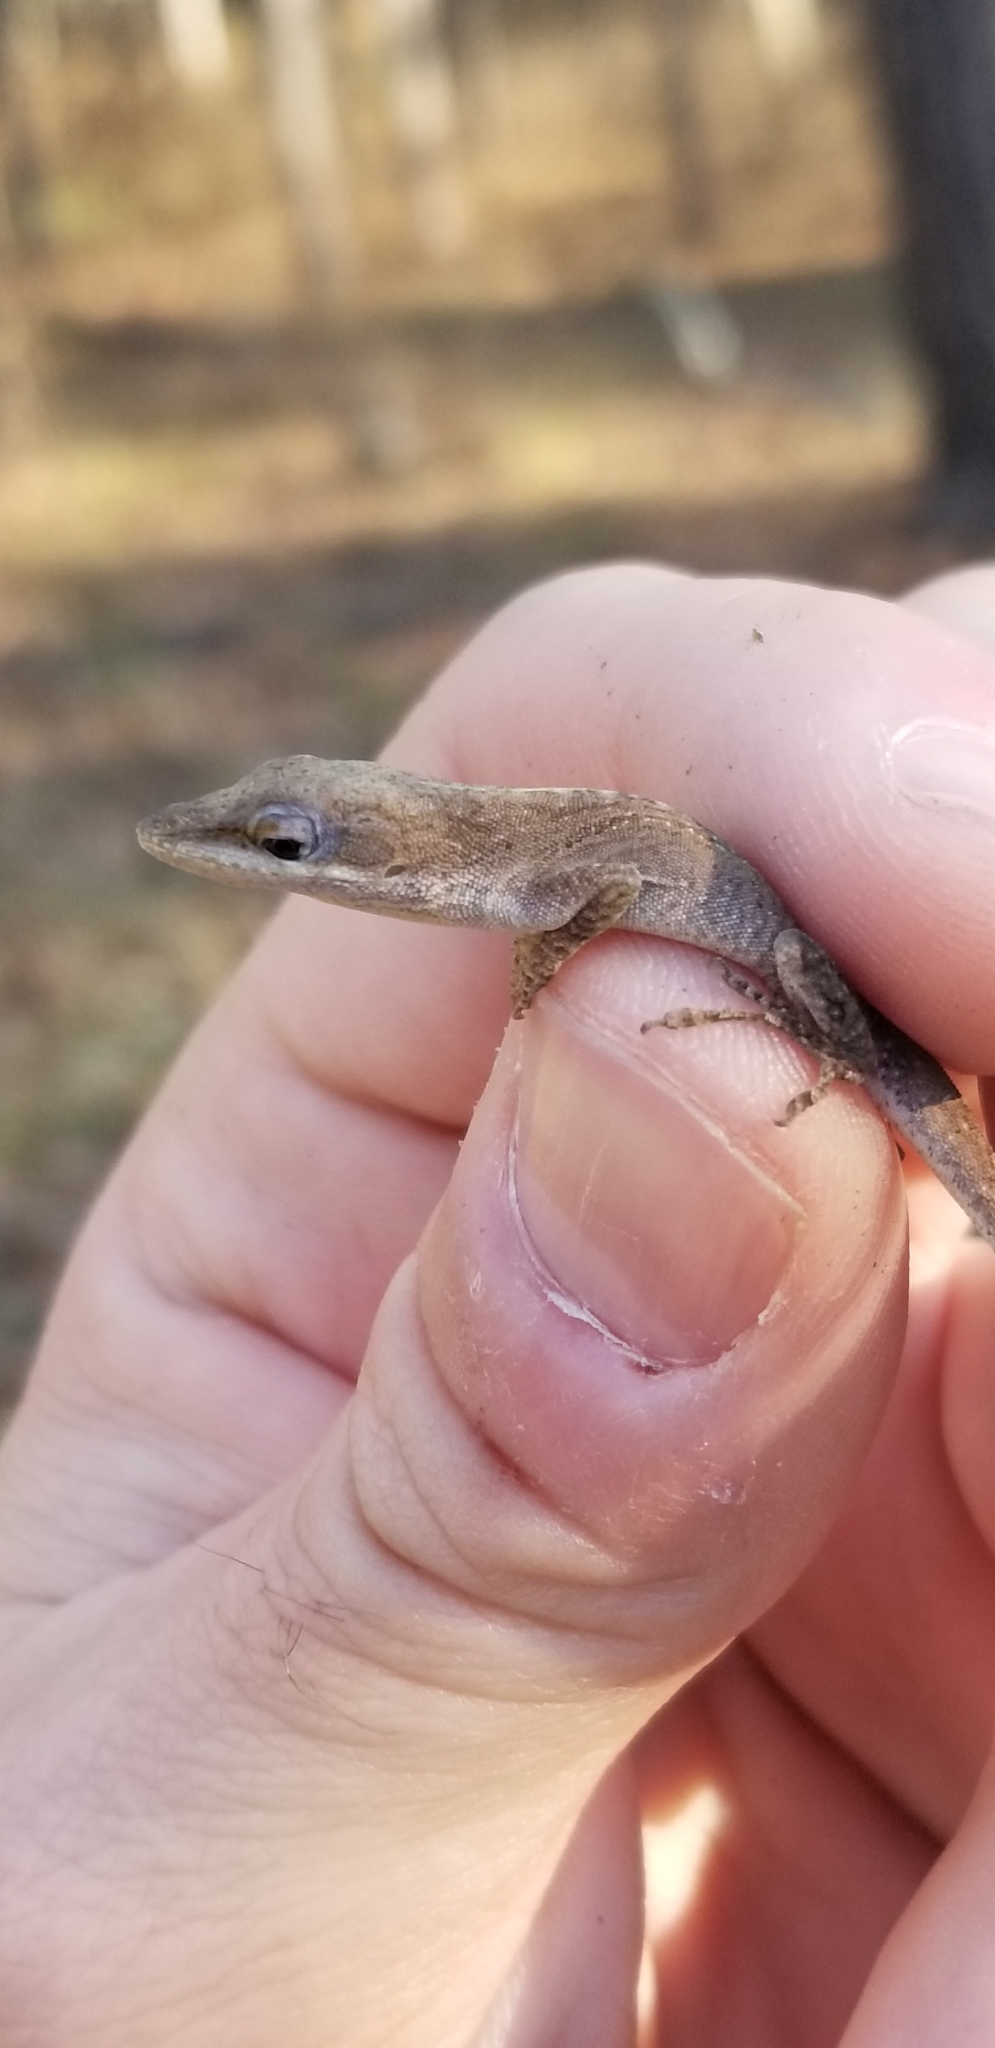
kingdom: Animalia
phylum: Chordata
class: Squamata
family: Dactyloidae
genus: Anolis
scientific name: Anolis carolinensis
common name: Green anole
